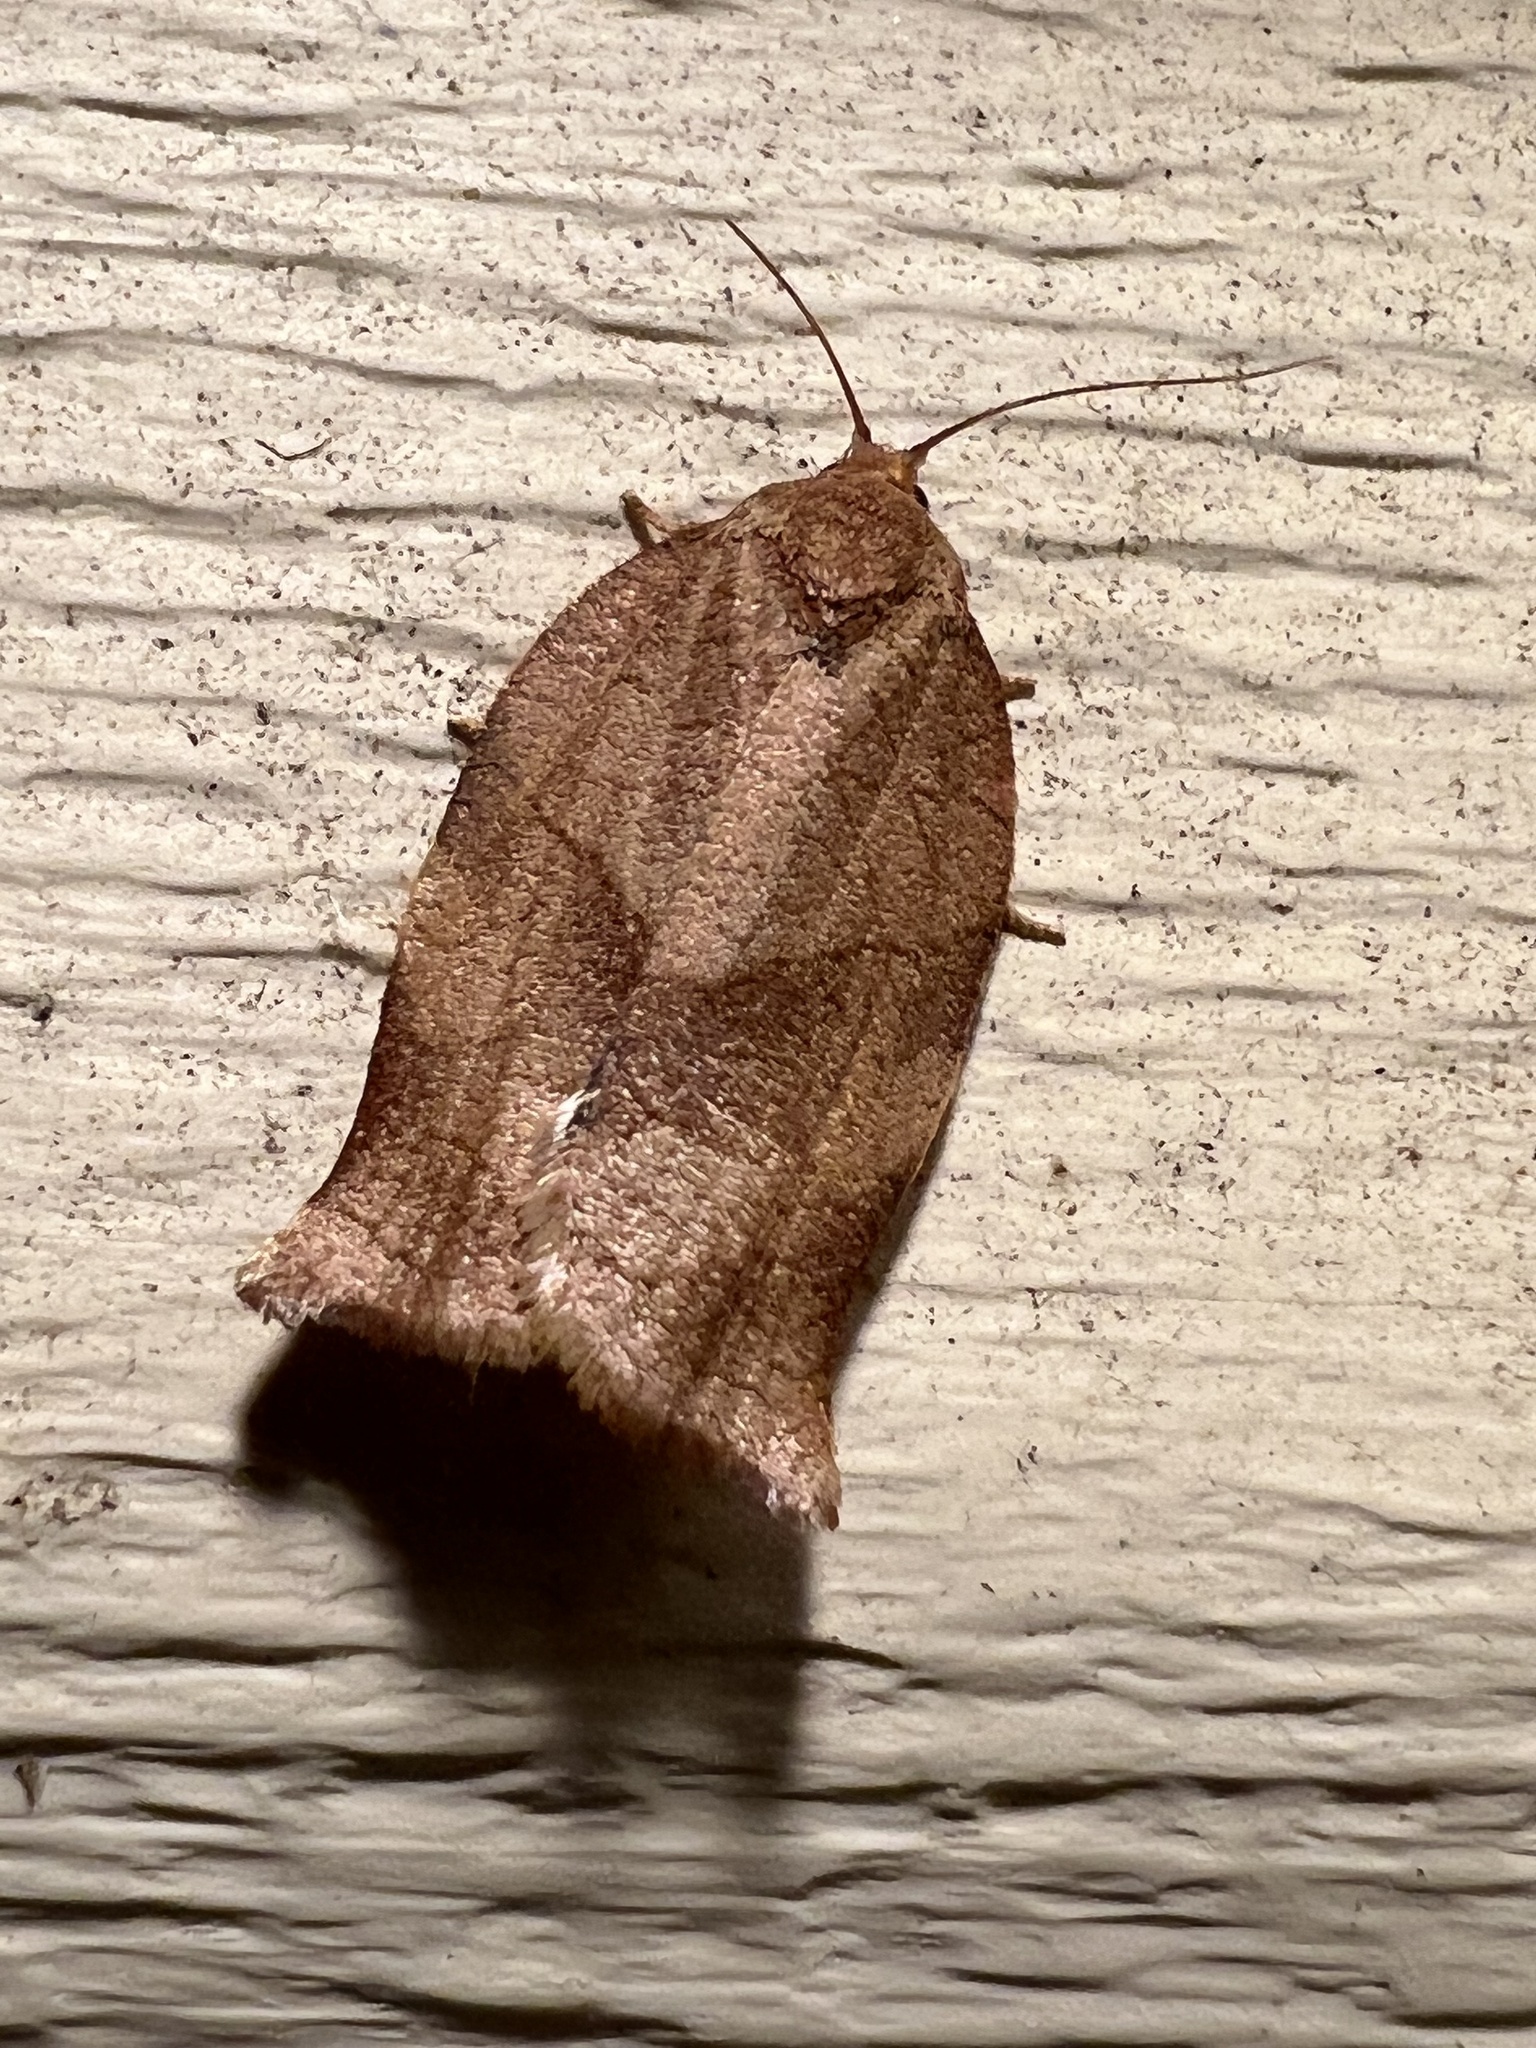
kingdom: Animalia
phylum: Arthropoda
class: Insecta
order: Lepidoptera
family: Tortricidae
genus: Choristoneura
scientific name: Choristoneura rosaceana
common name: Oblique-banded leafroller moth
